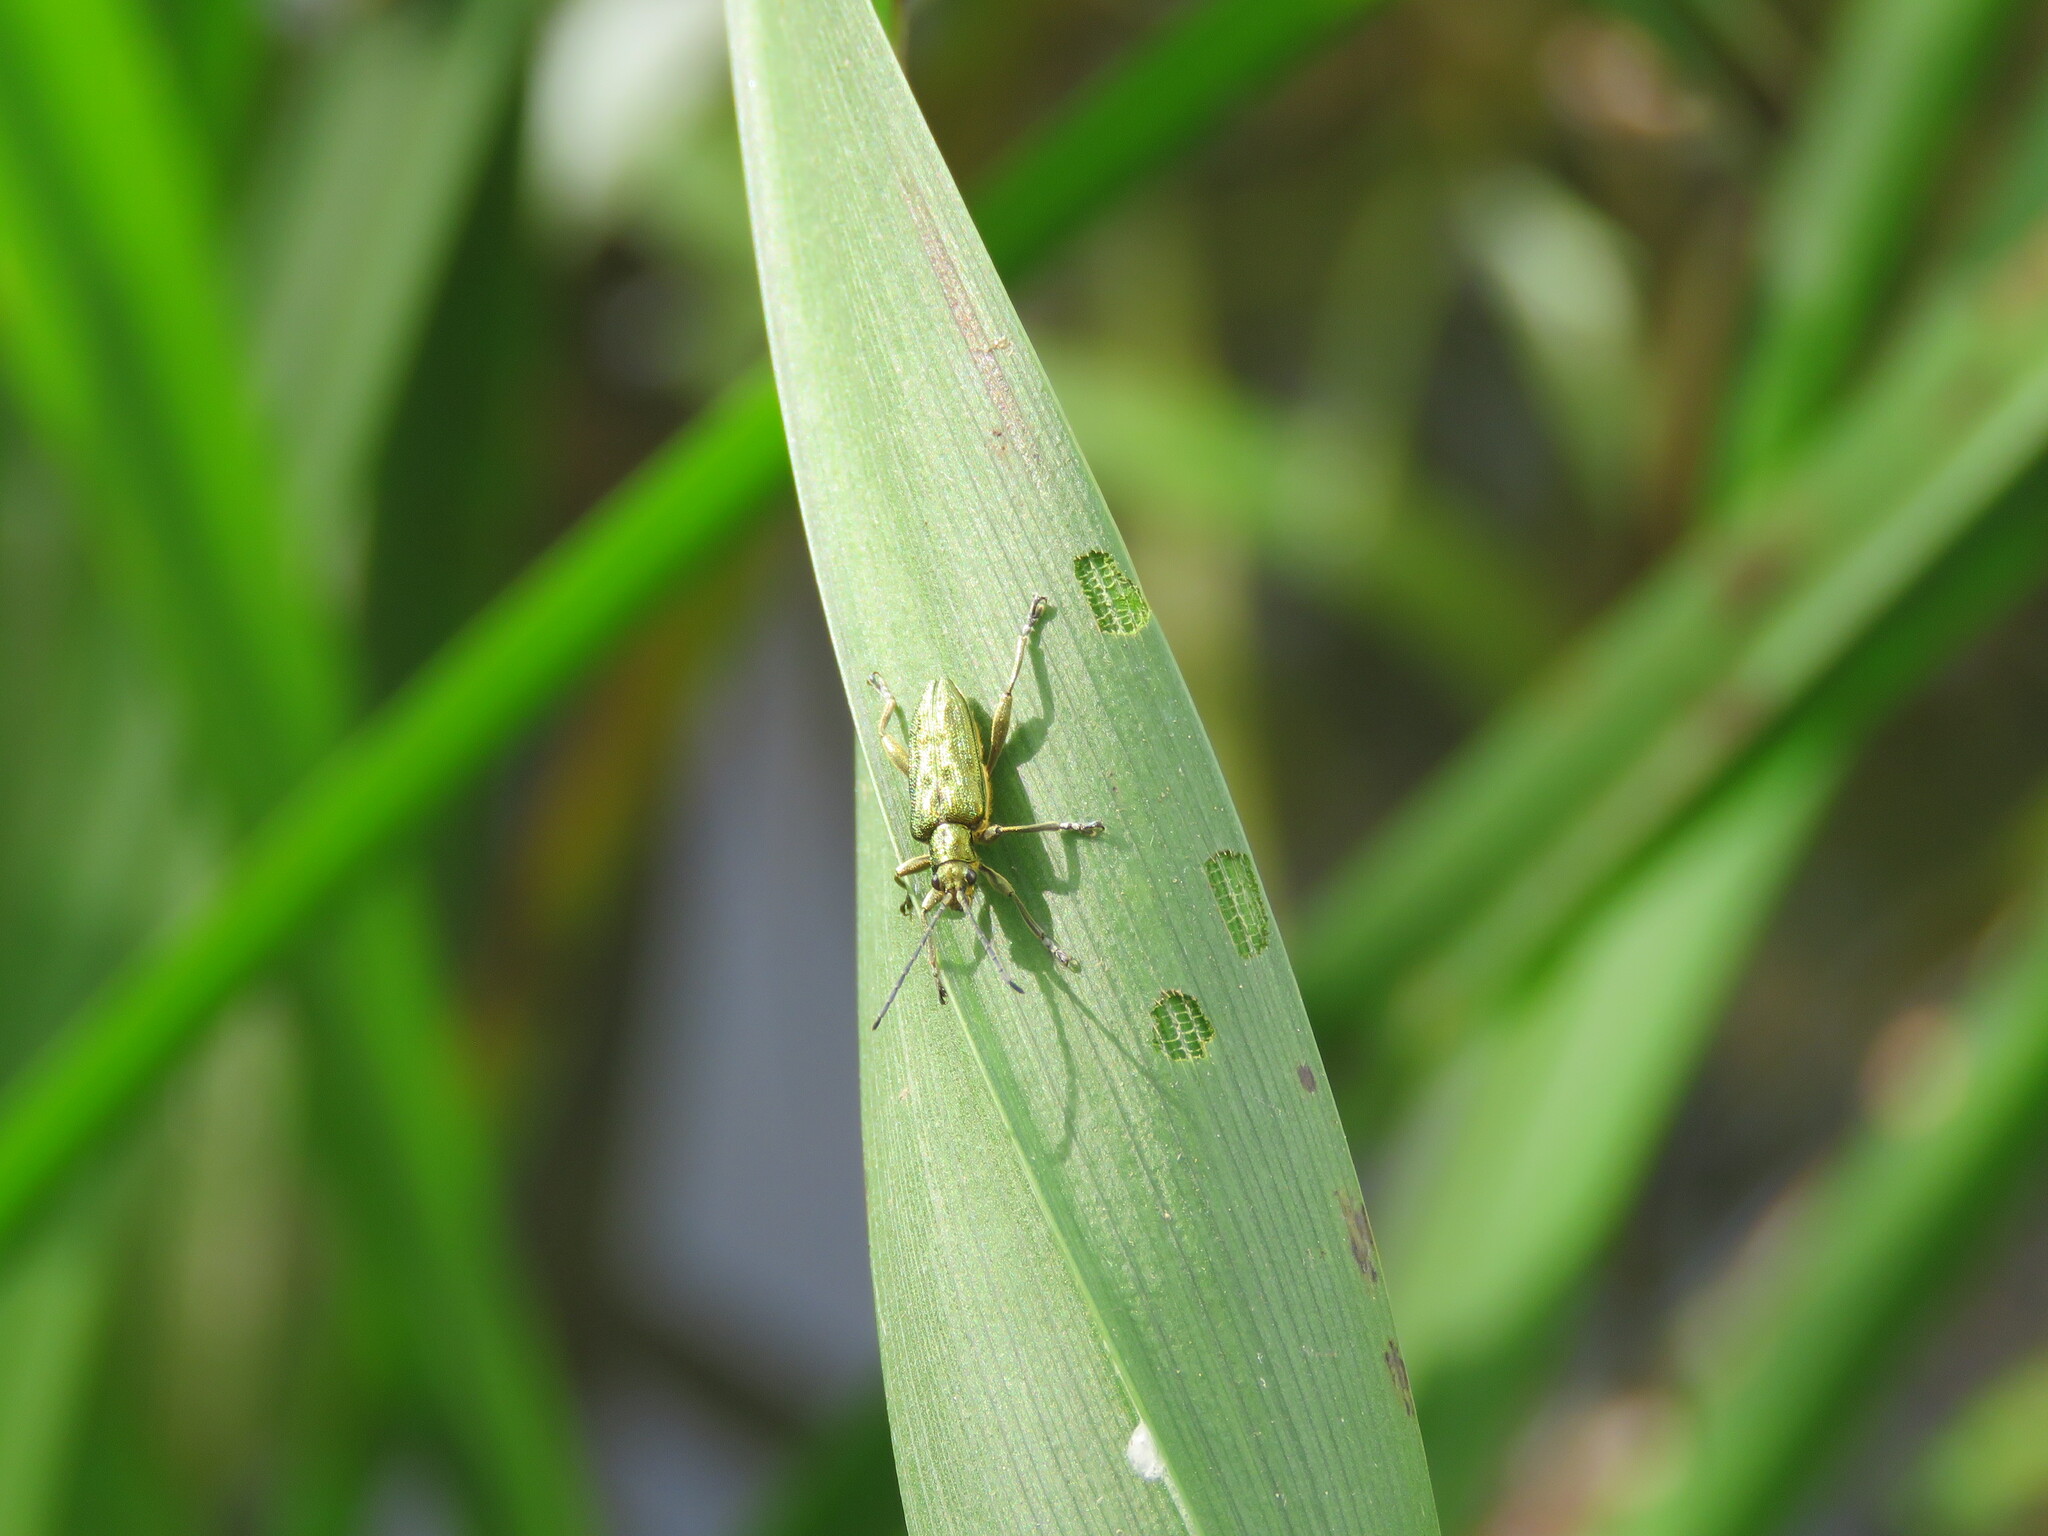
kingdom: Animalia
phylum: Arthropoda
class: Insecta
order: Coleoptera
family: Chrysomelidae
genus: Donacia
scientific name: Donacia bicolora
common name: Reed beetle
